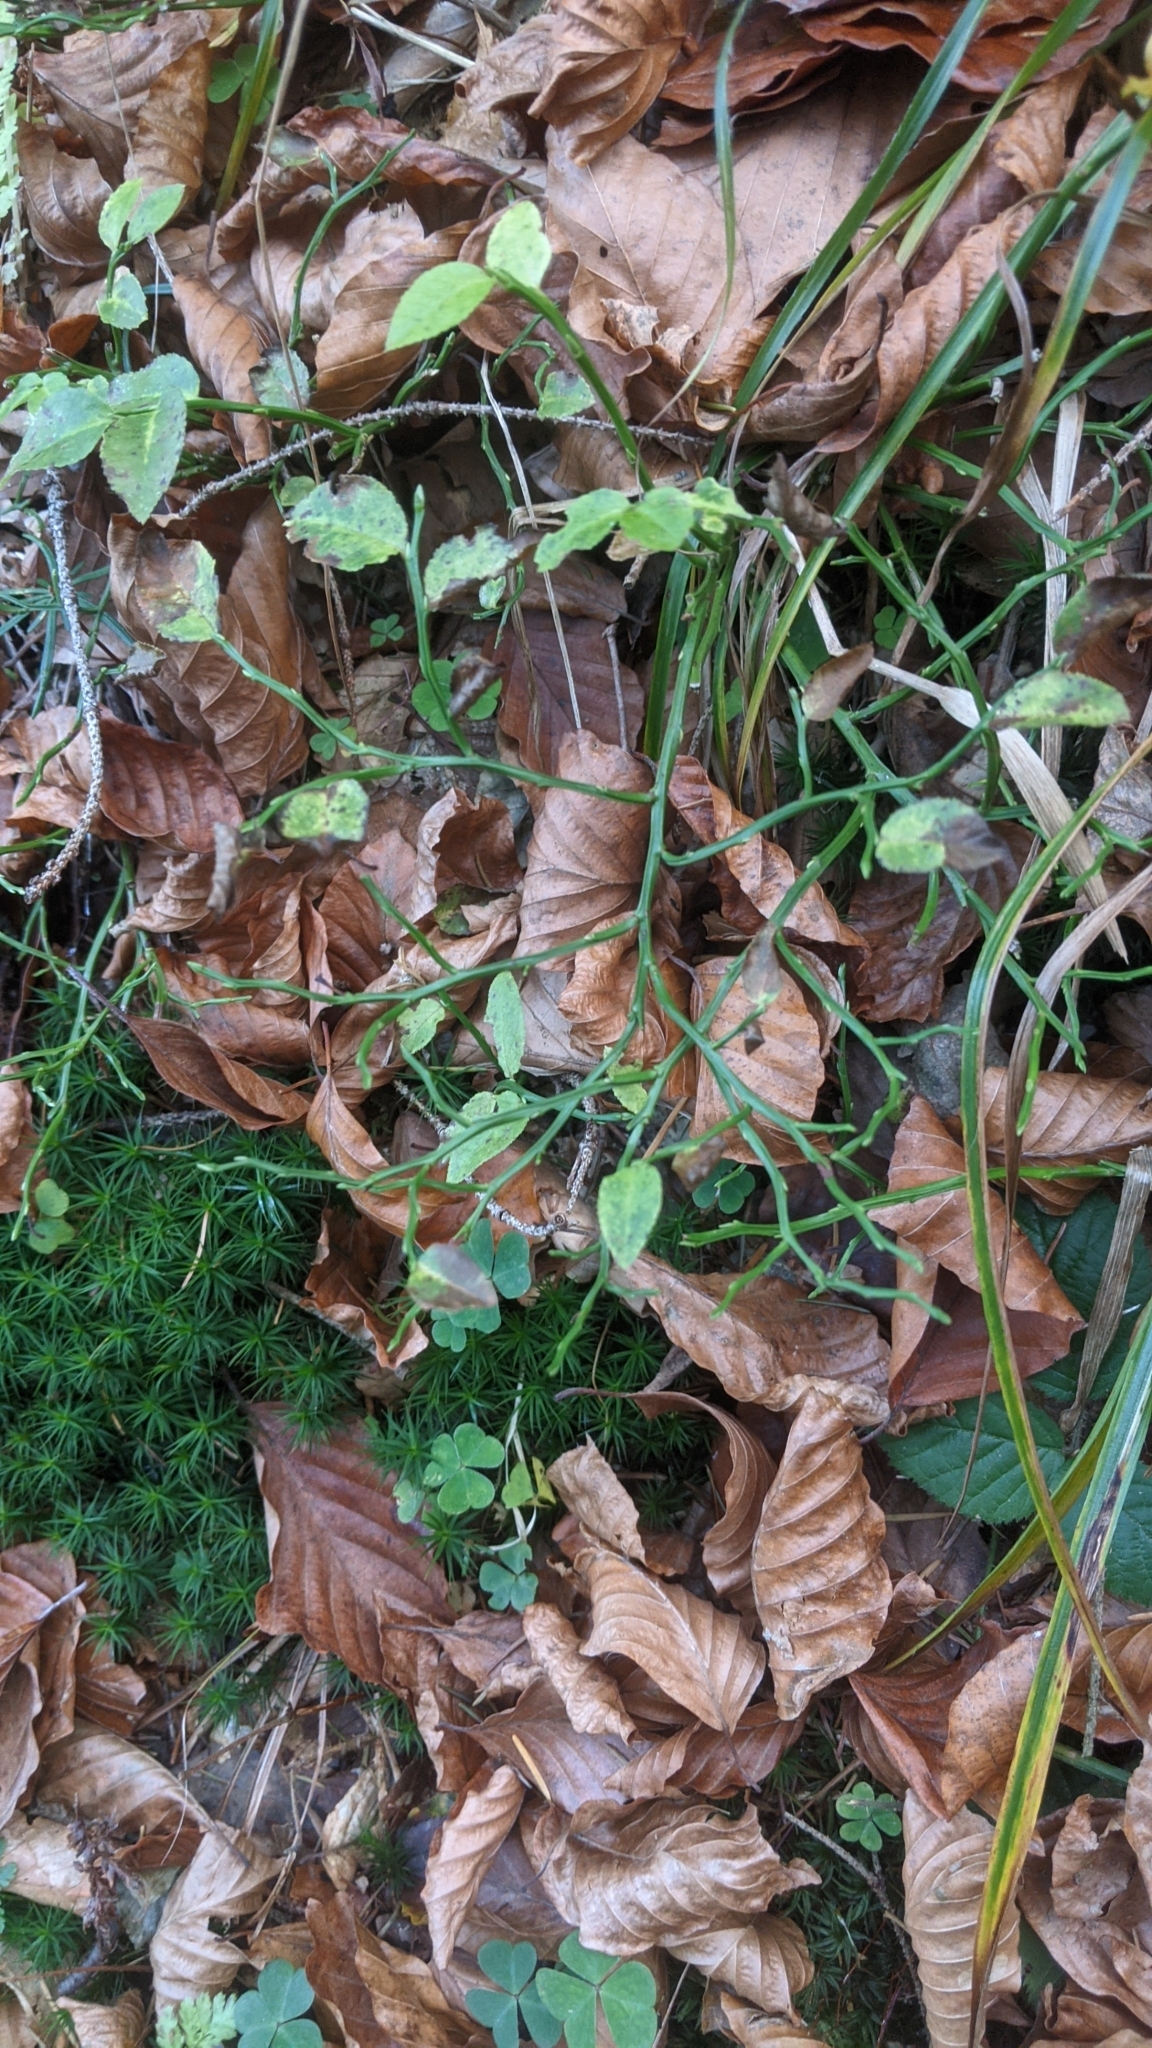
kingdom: Plantae
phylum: Tracheophyta
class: Magnoliopsida
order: Ericales
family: Ericaceae
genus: Vaccinium
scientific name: Vaccinium myrtillus
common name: Bilberry
